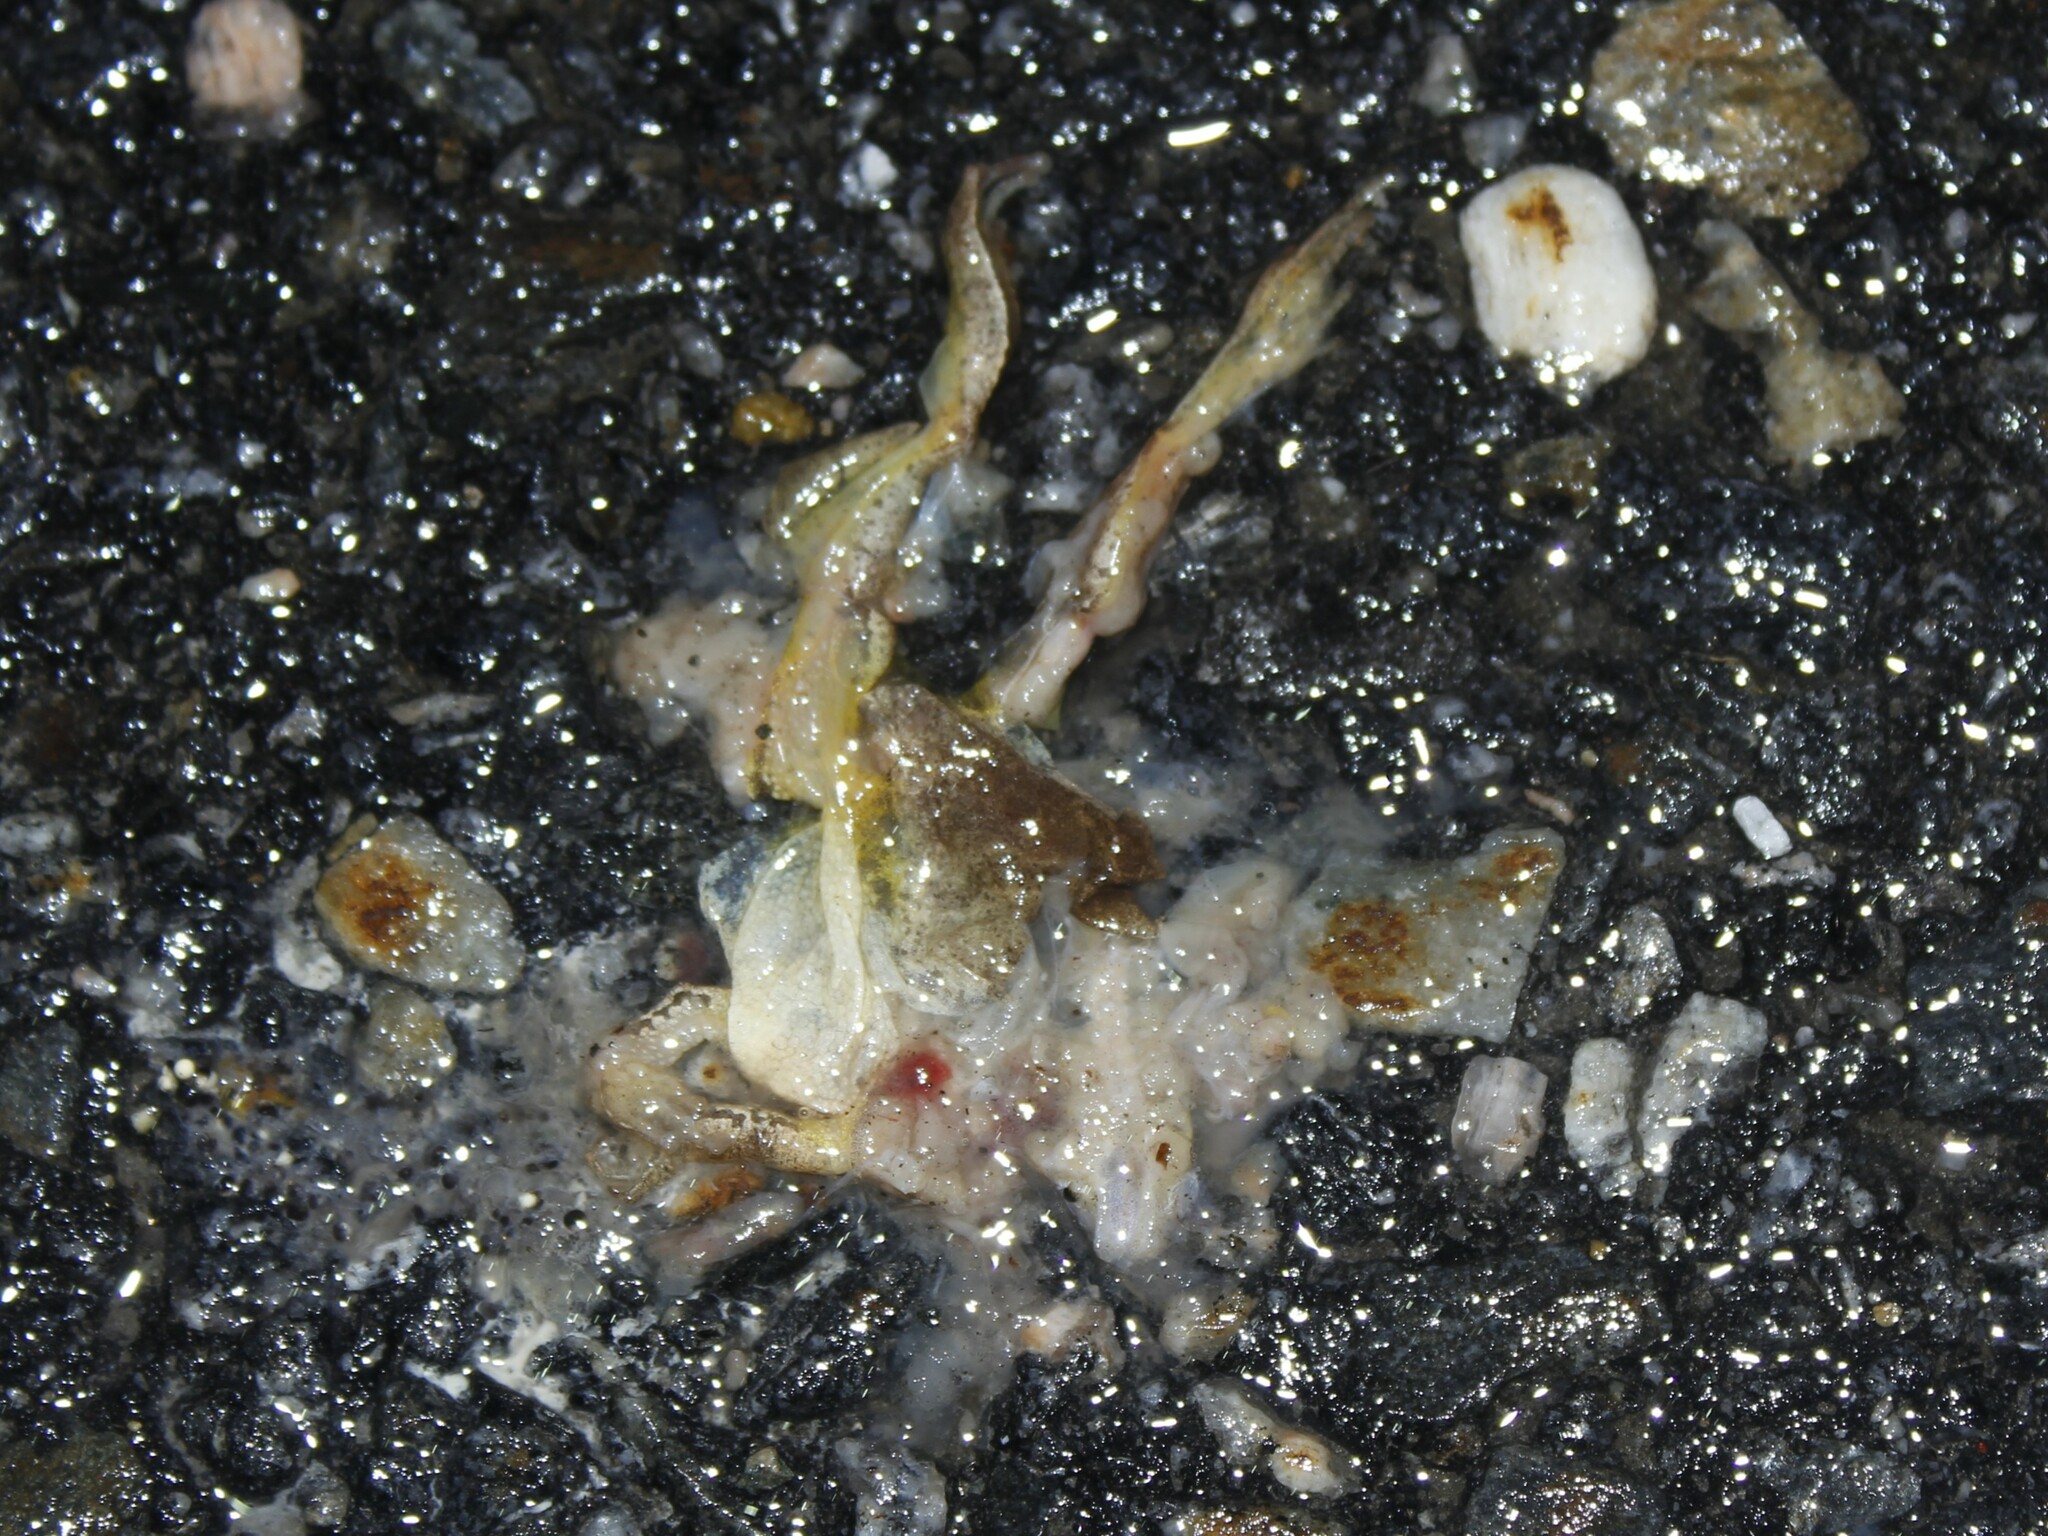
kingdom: Animalia
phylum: Chordata
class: Amphibia
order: Anura
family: Hylidae
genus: Pseudacris
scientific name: Pseudacris crucifer
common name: Spring peeper
